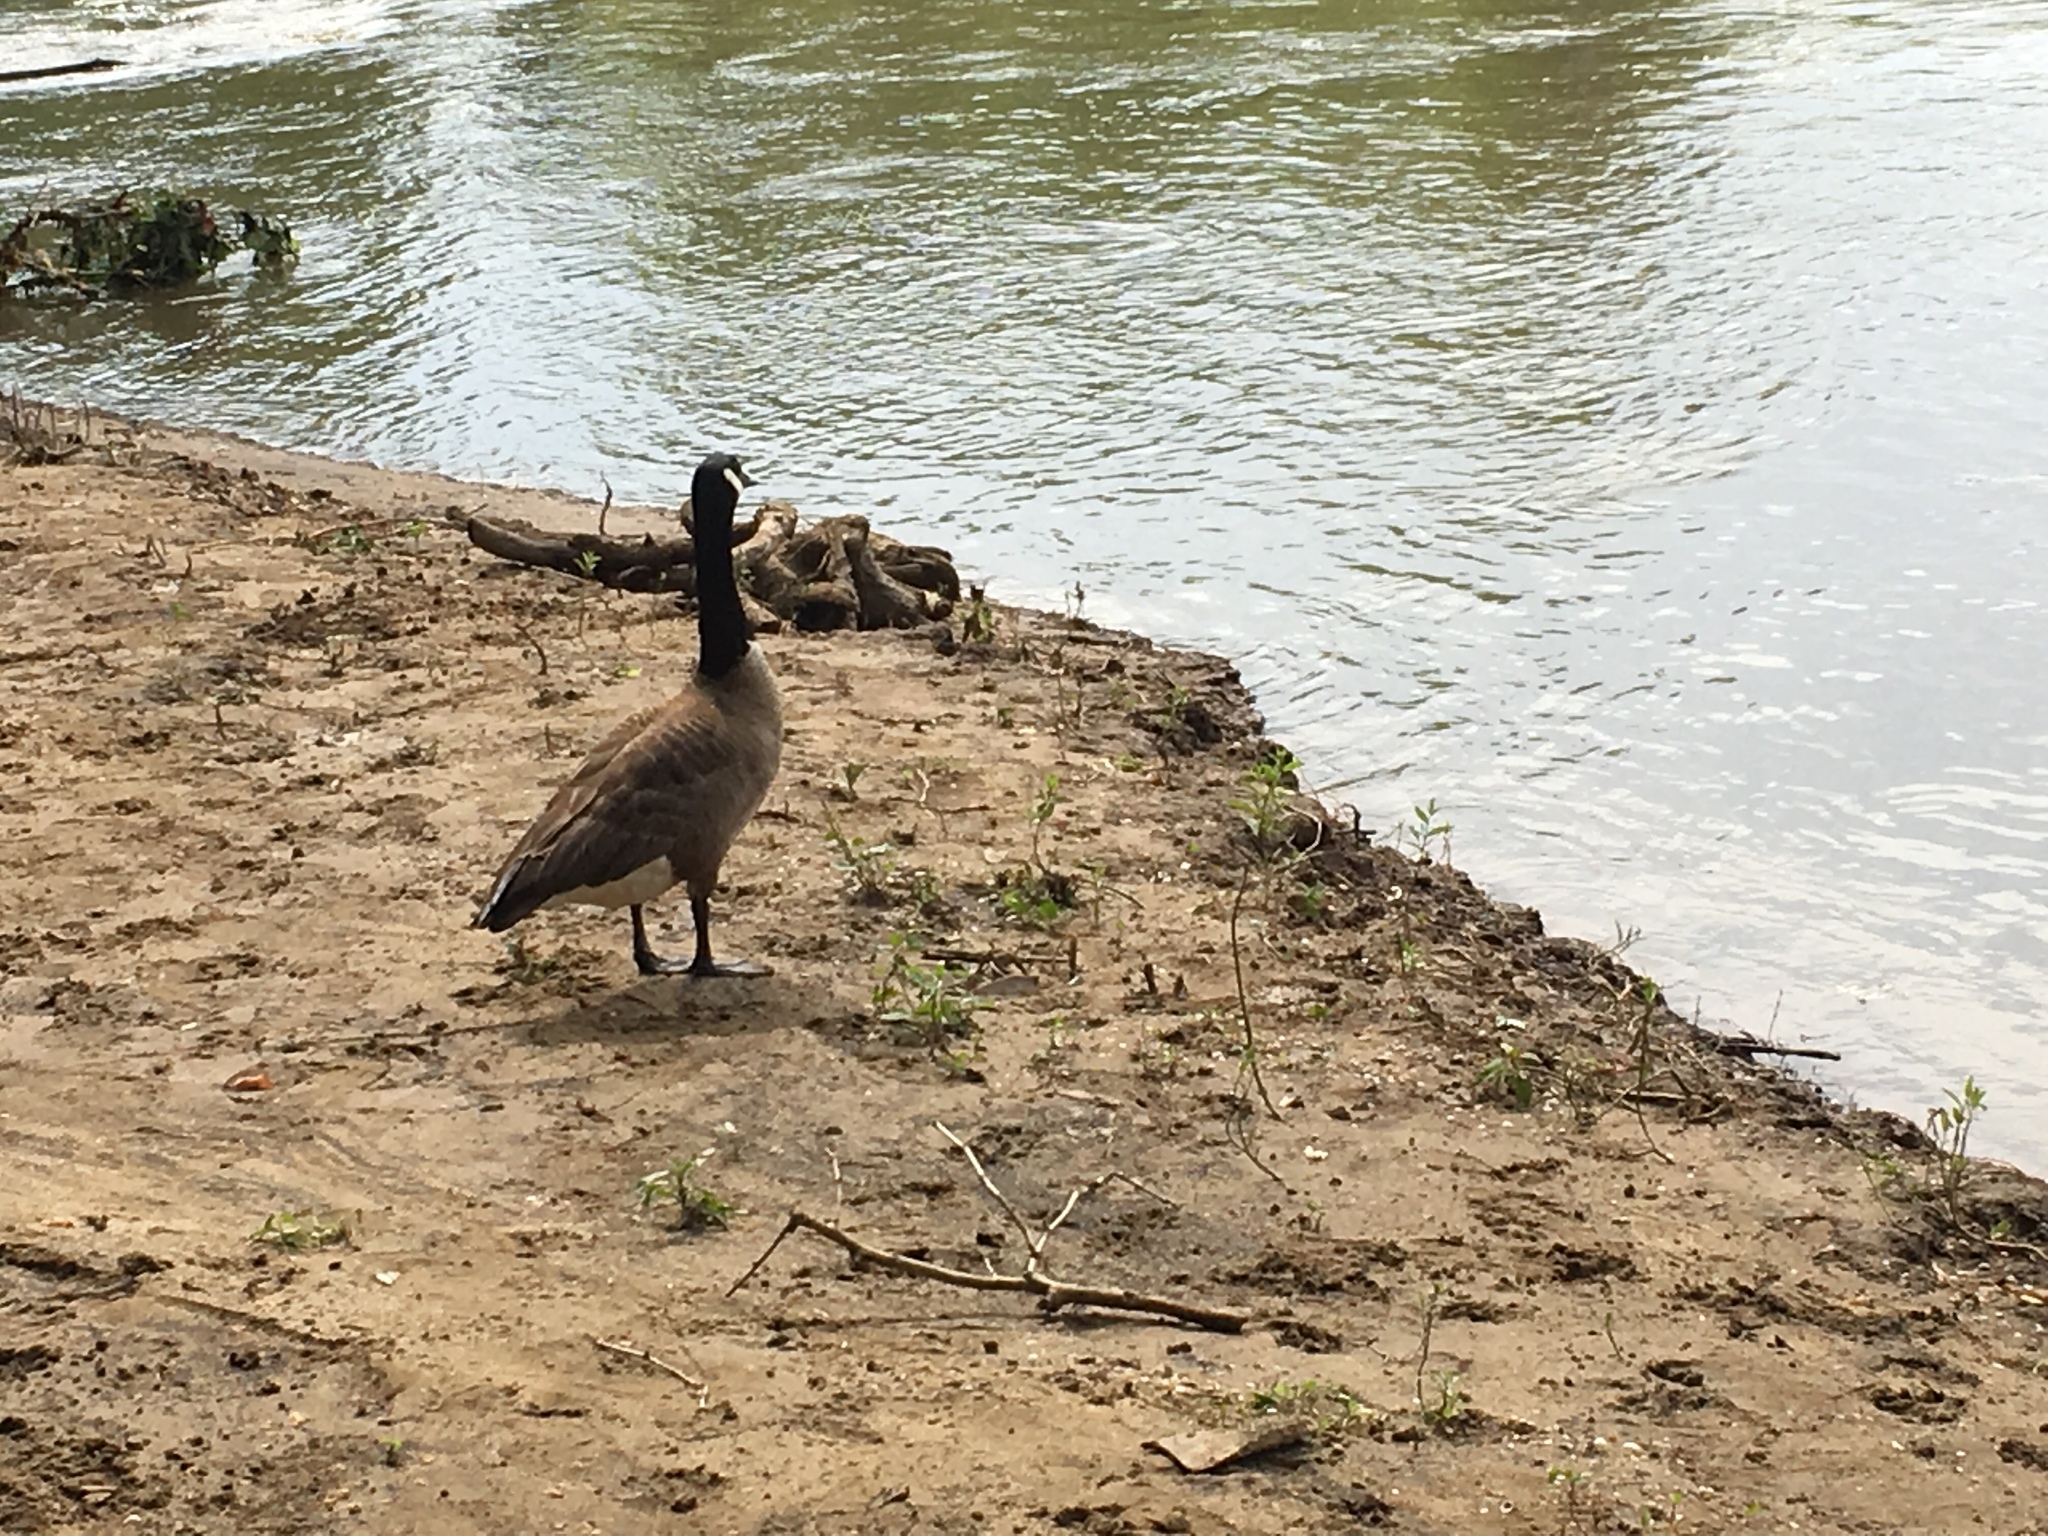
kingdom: Animalia
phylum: Chordata
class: Aves
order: Anseriformes
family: Anatidae
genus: Branta
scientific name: Branta canadensis
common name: Canada goose
